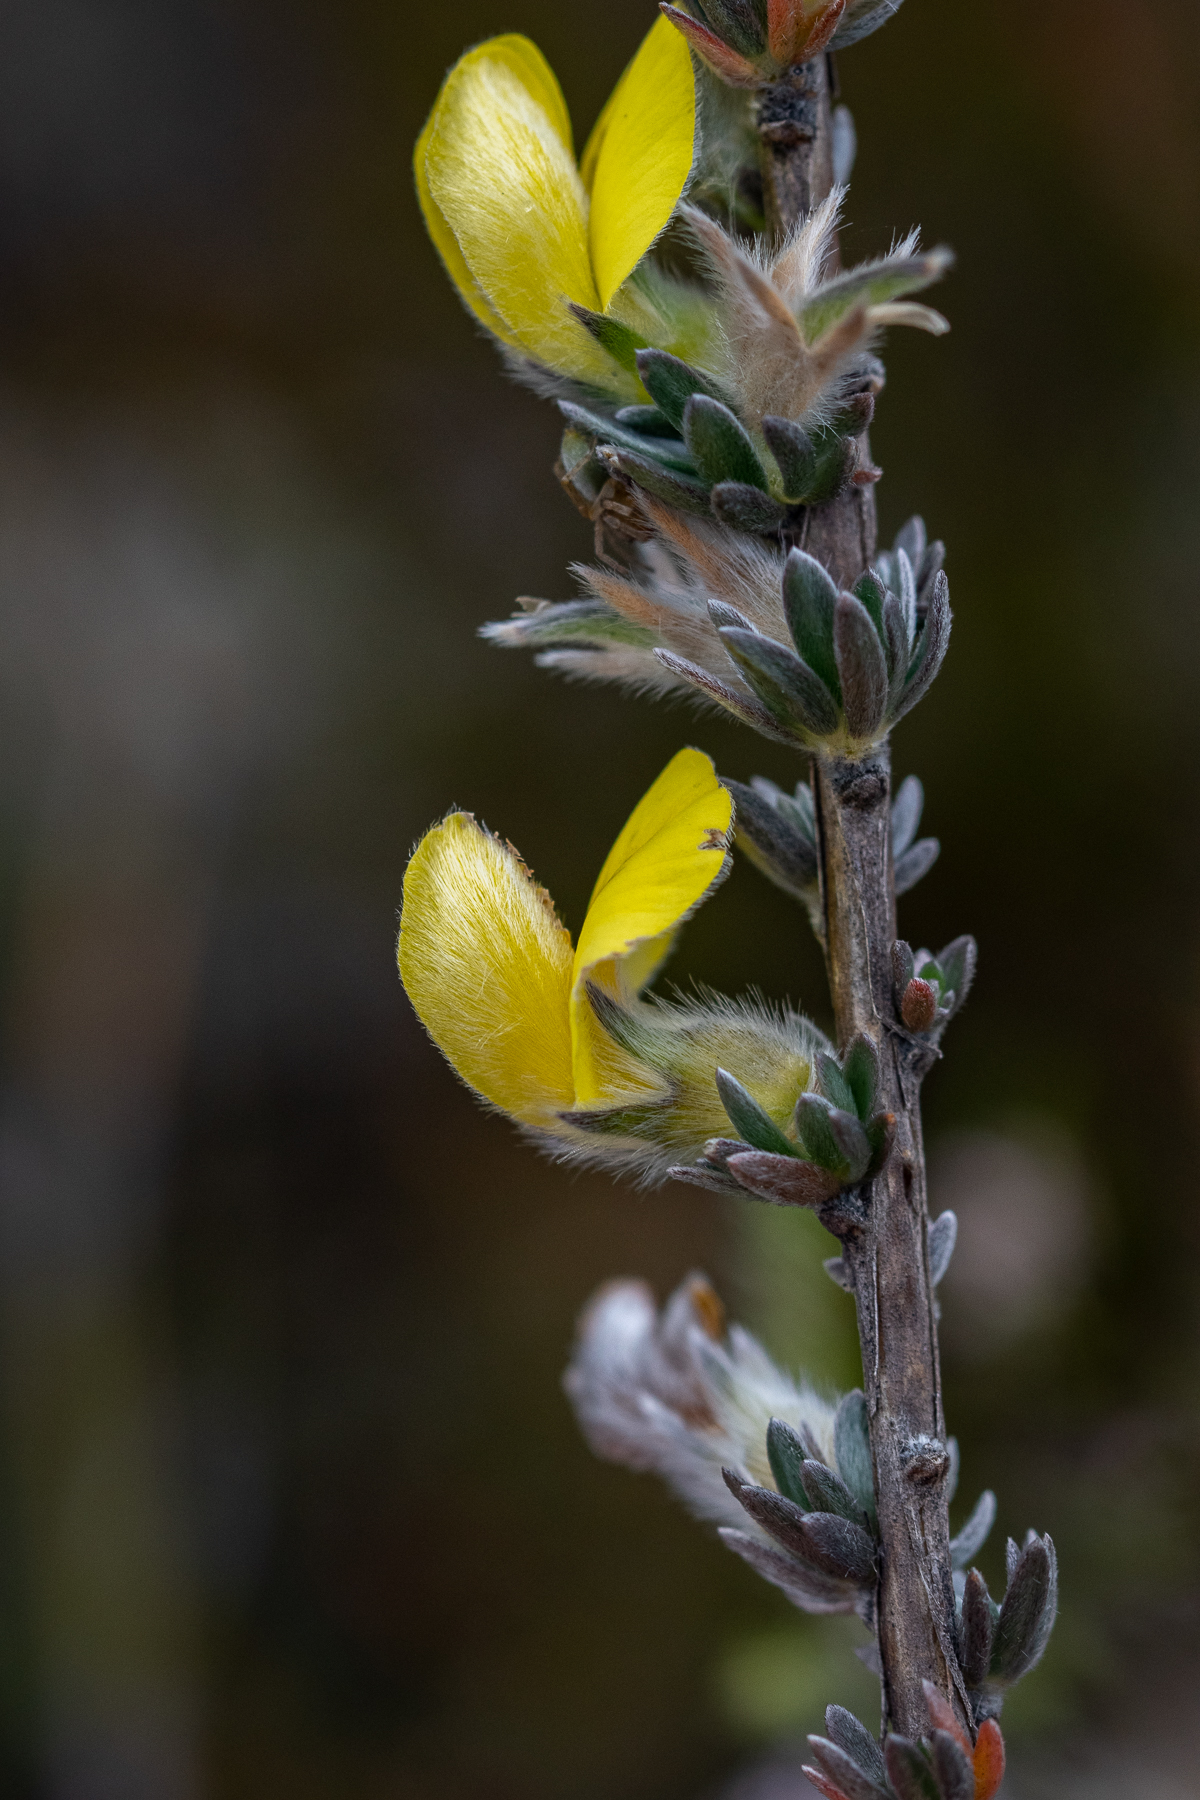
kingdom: Plantae
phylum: Tracheophyta
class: Magnoliopsida
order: Fabales
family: Fabaceae
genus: Aspalathus
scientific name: Aspalathus oblongifolia
